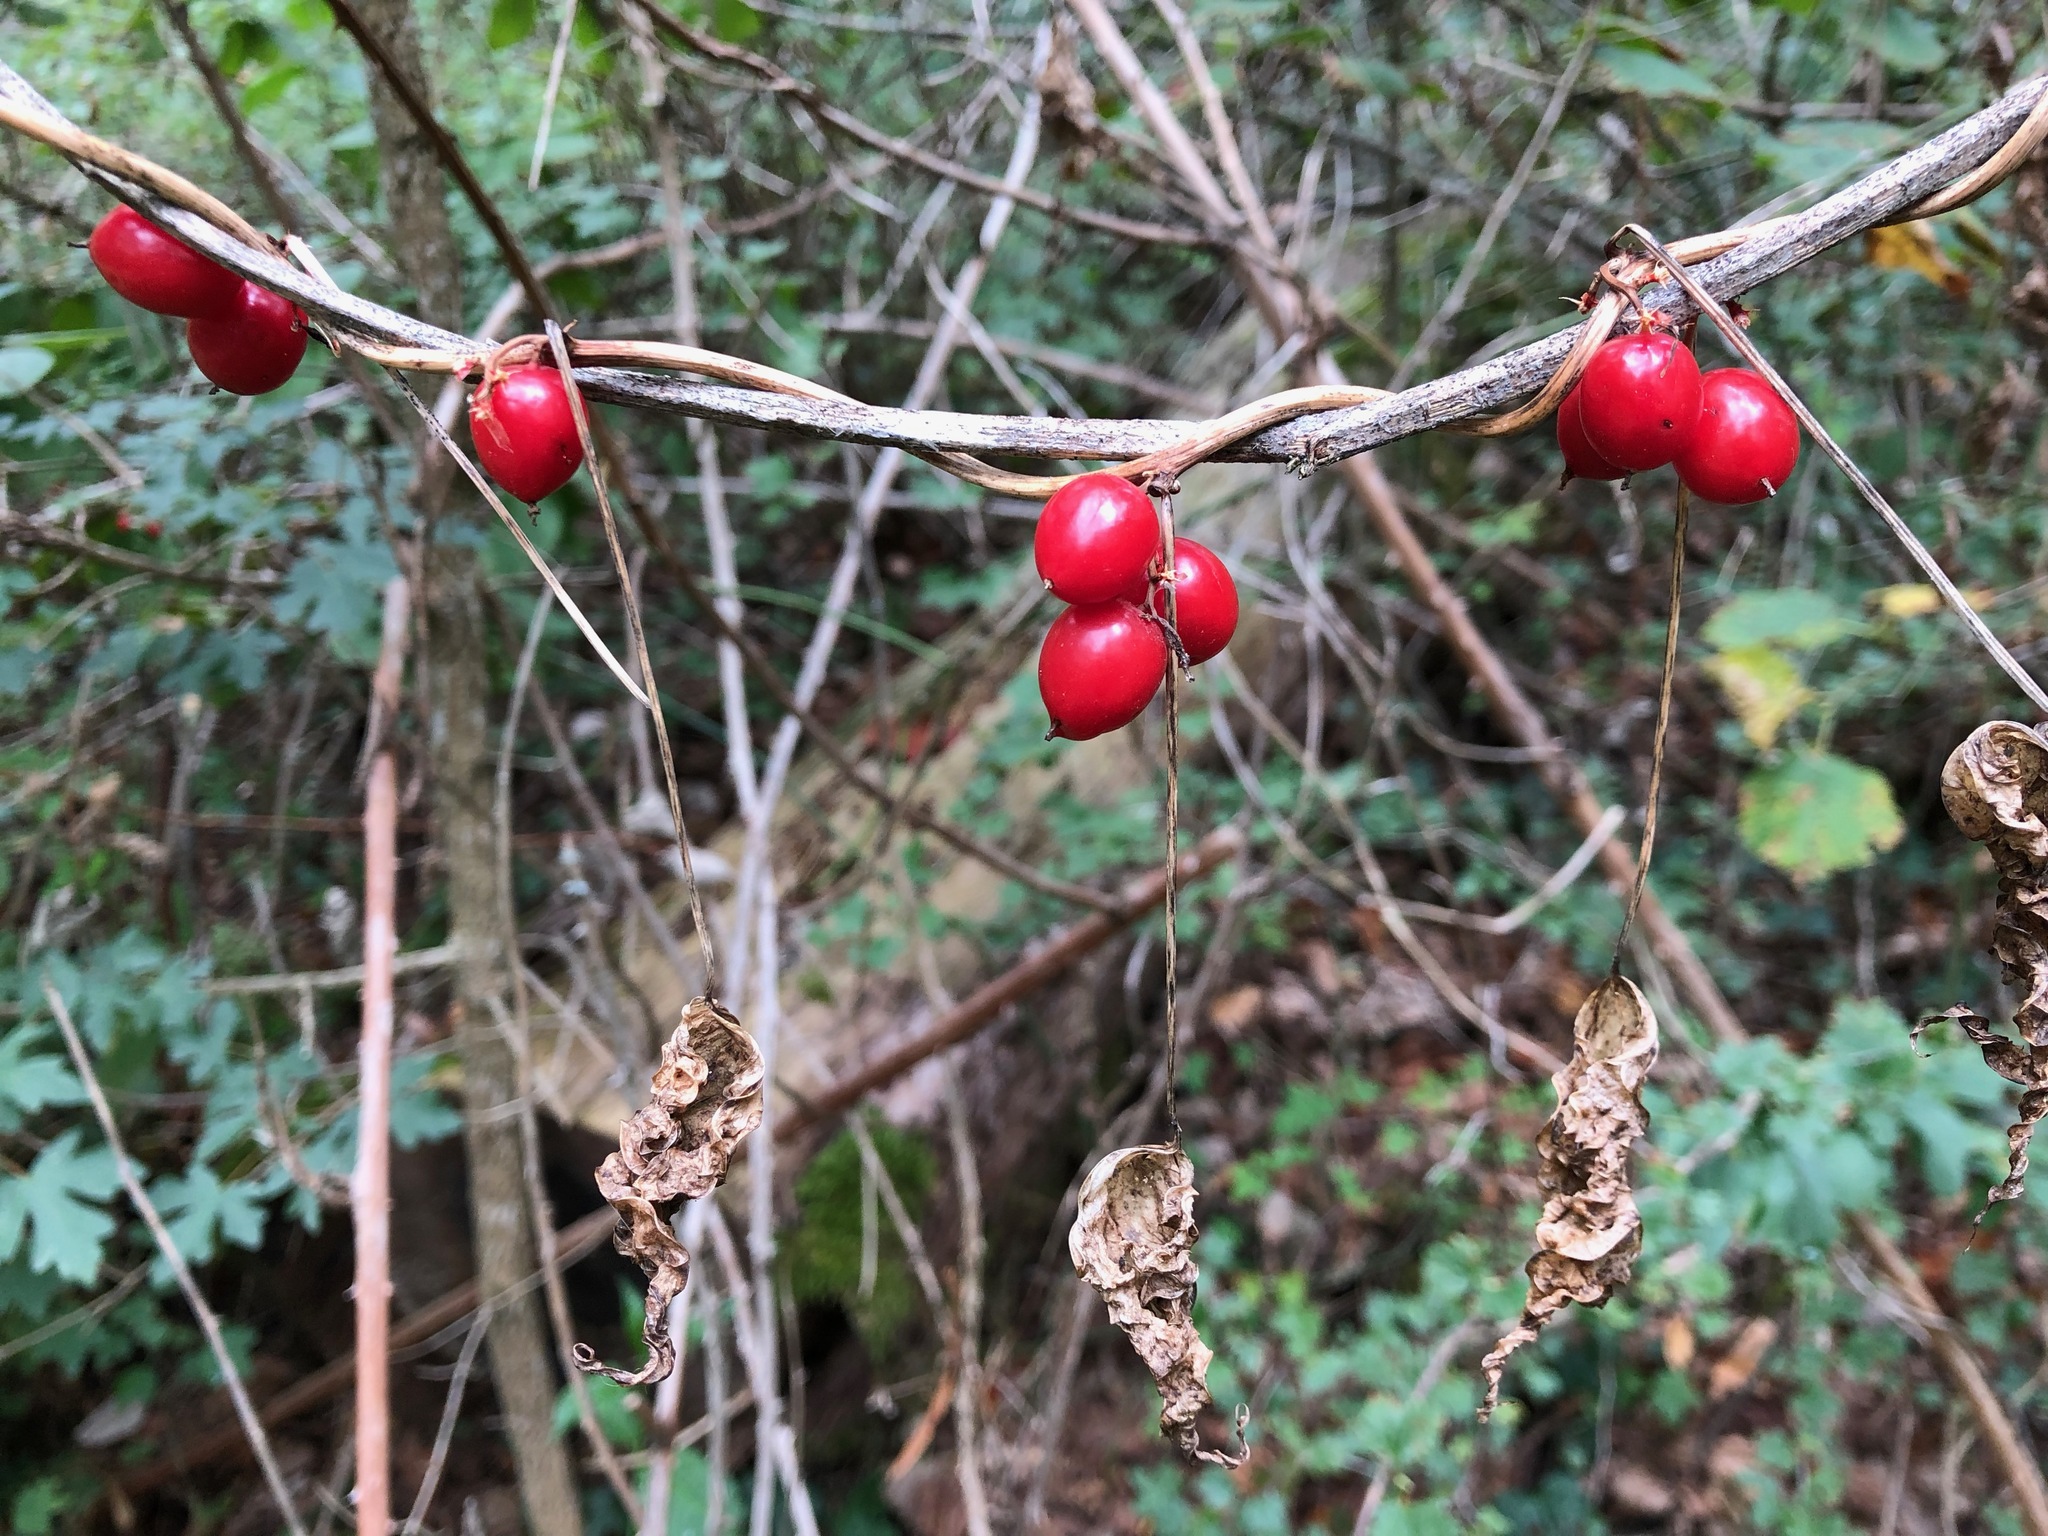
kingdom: Plantae
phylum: Tracheophyta
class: Liliopsida
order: Dioscoreales
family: Dioscoreaceae
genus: Dioscorea
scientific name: Dioscorea communis
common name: Black-bindweed
